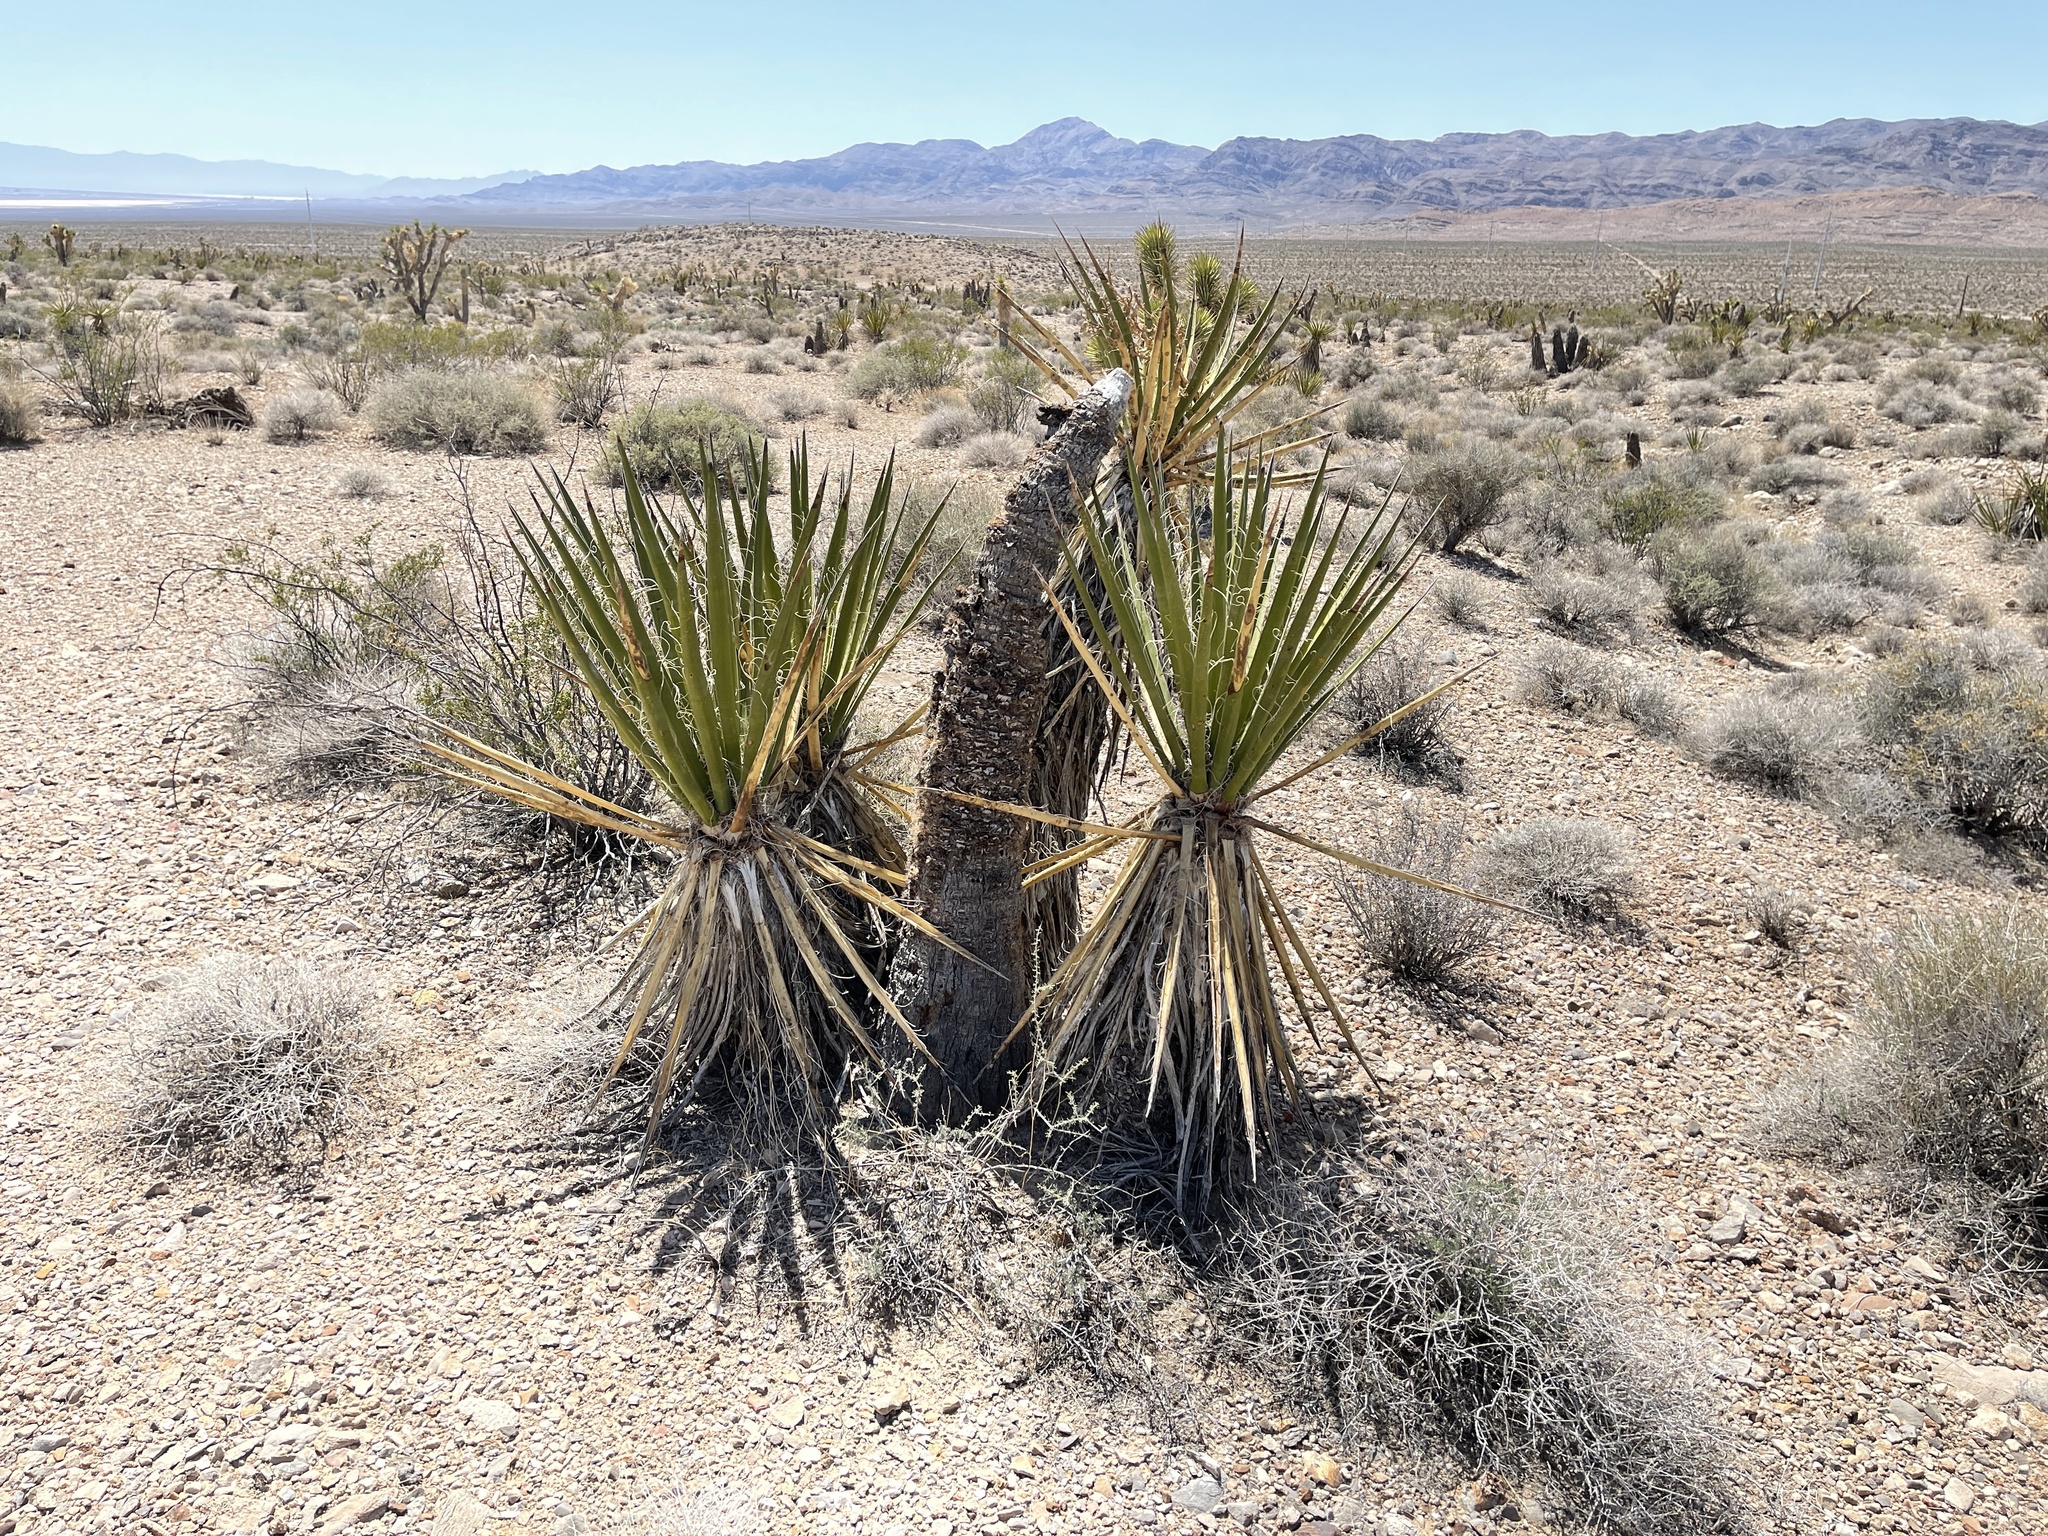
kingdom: Plantae
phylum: Tracheophyta
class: Liliopsida
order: Asparagales
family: Asparagaceae
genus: Yucca
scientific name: Yucca schidigera
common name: Mojave yucca
